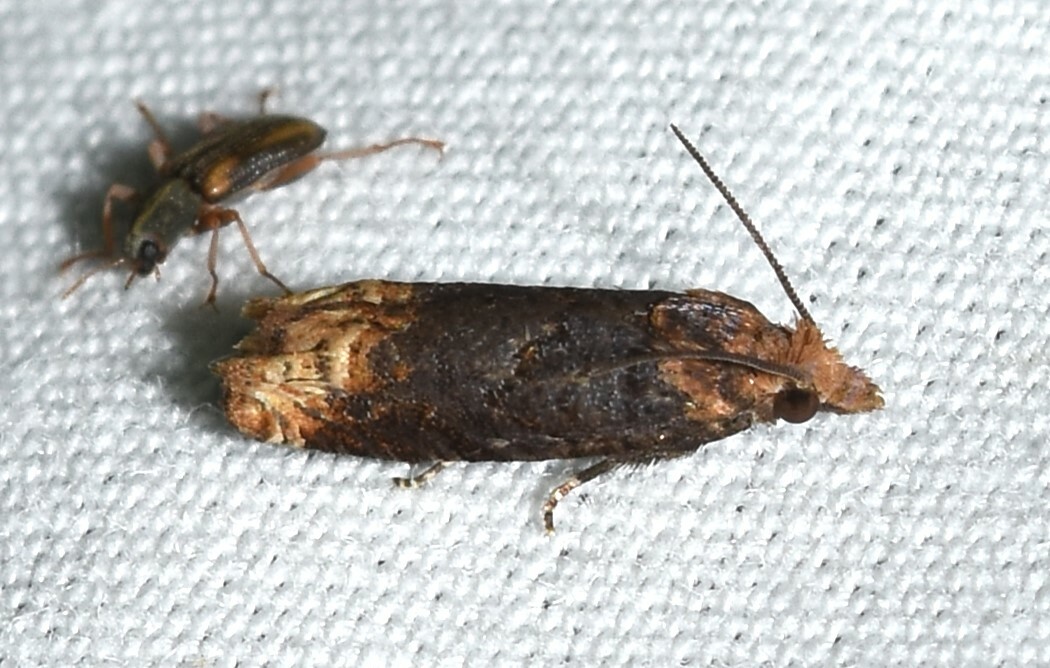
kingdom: Animalia
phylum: Arthropoda
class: Insecta
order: Lepidoptera
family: Tortricidae
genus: Eucosma
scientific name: Eucosma ochroterminana
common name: Buff-tipped eucosma moth
